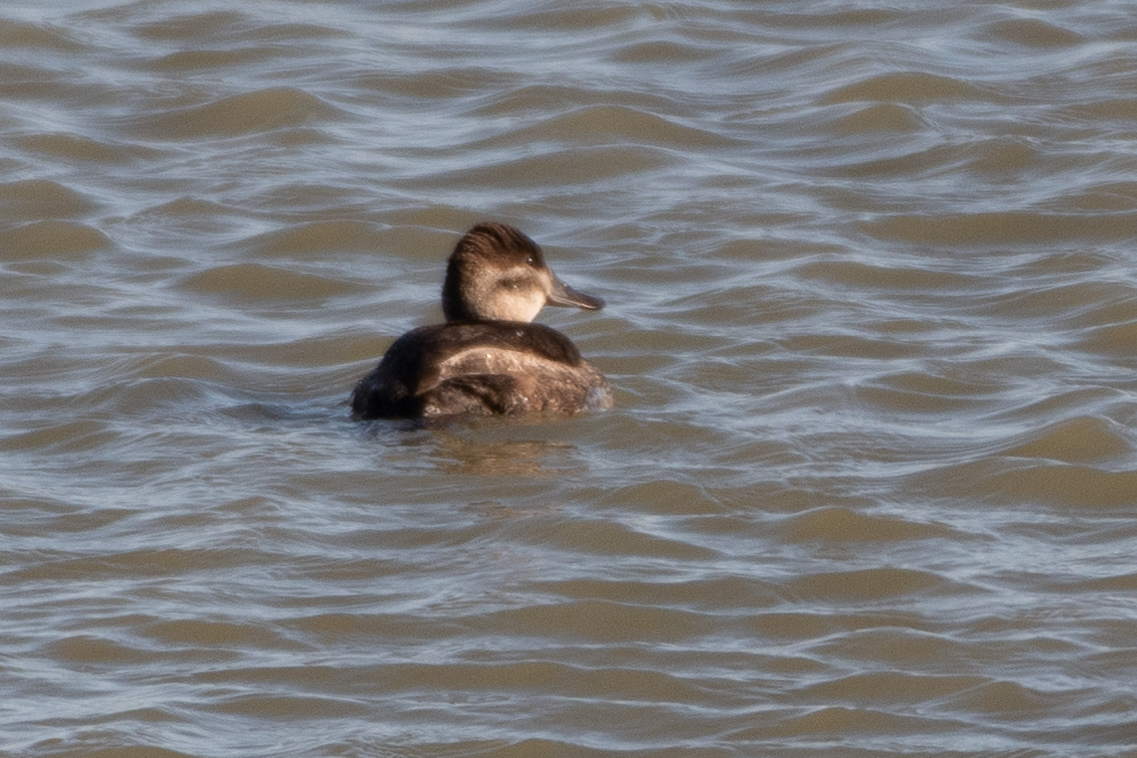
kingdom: Animalia
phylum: Chordata
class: Aves
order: Anseriformes
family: Anatidae
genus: Oxyura
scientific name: Oxyura jamaicensis
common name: Ruddy duck
